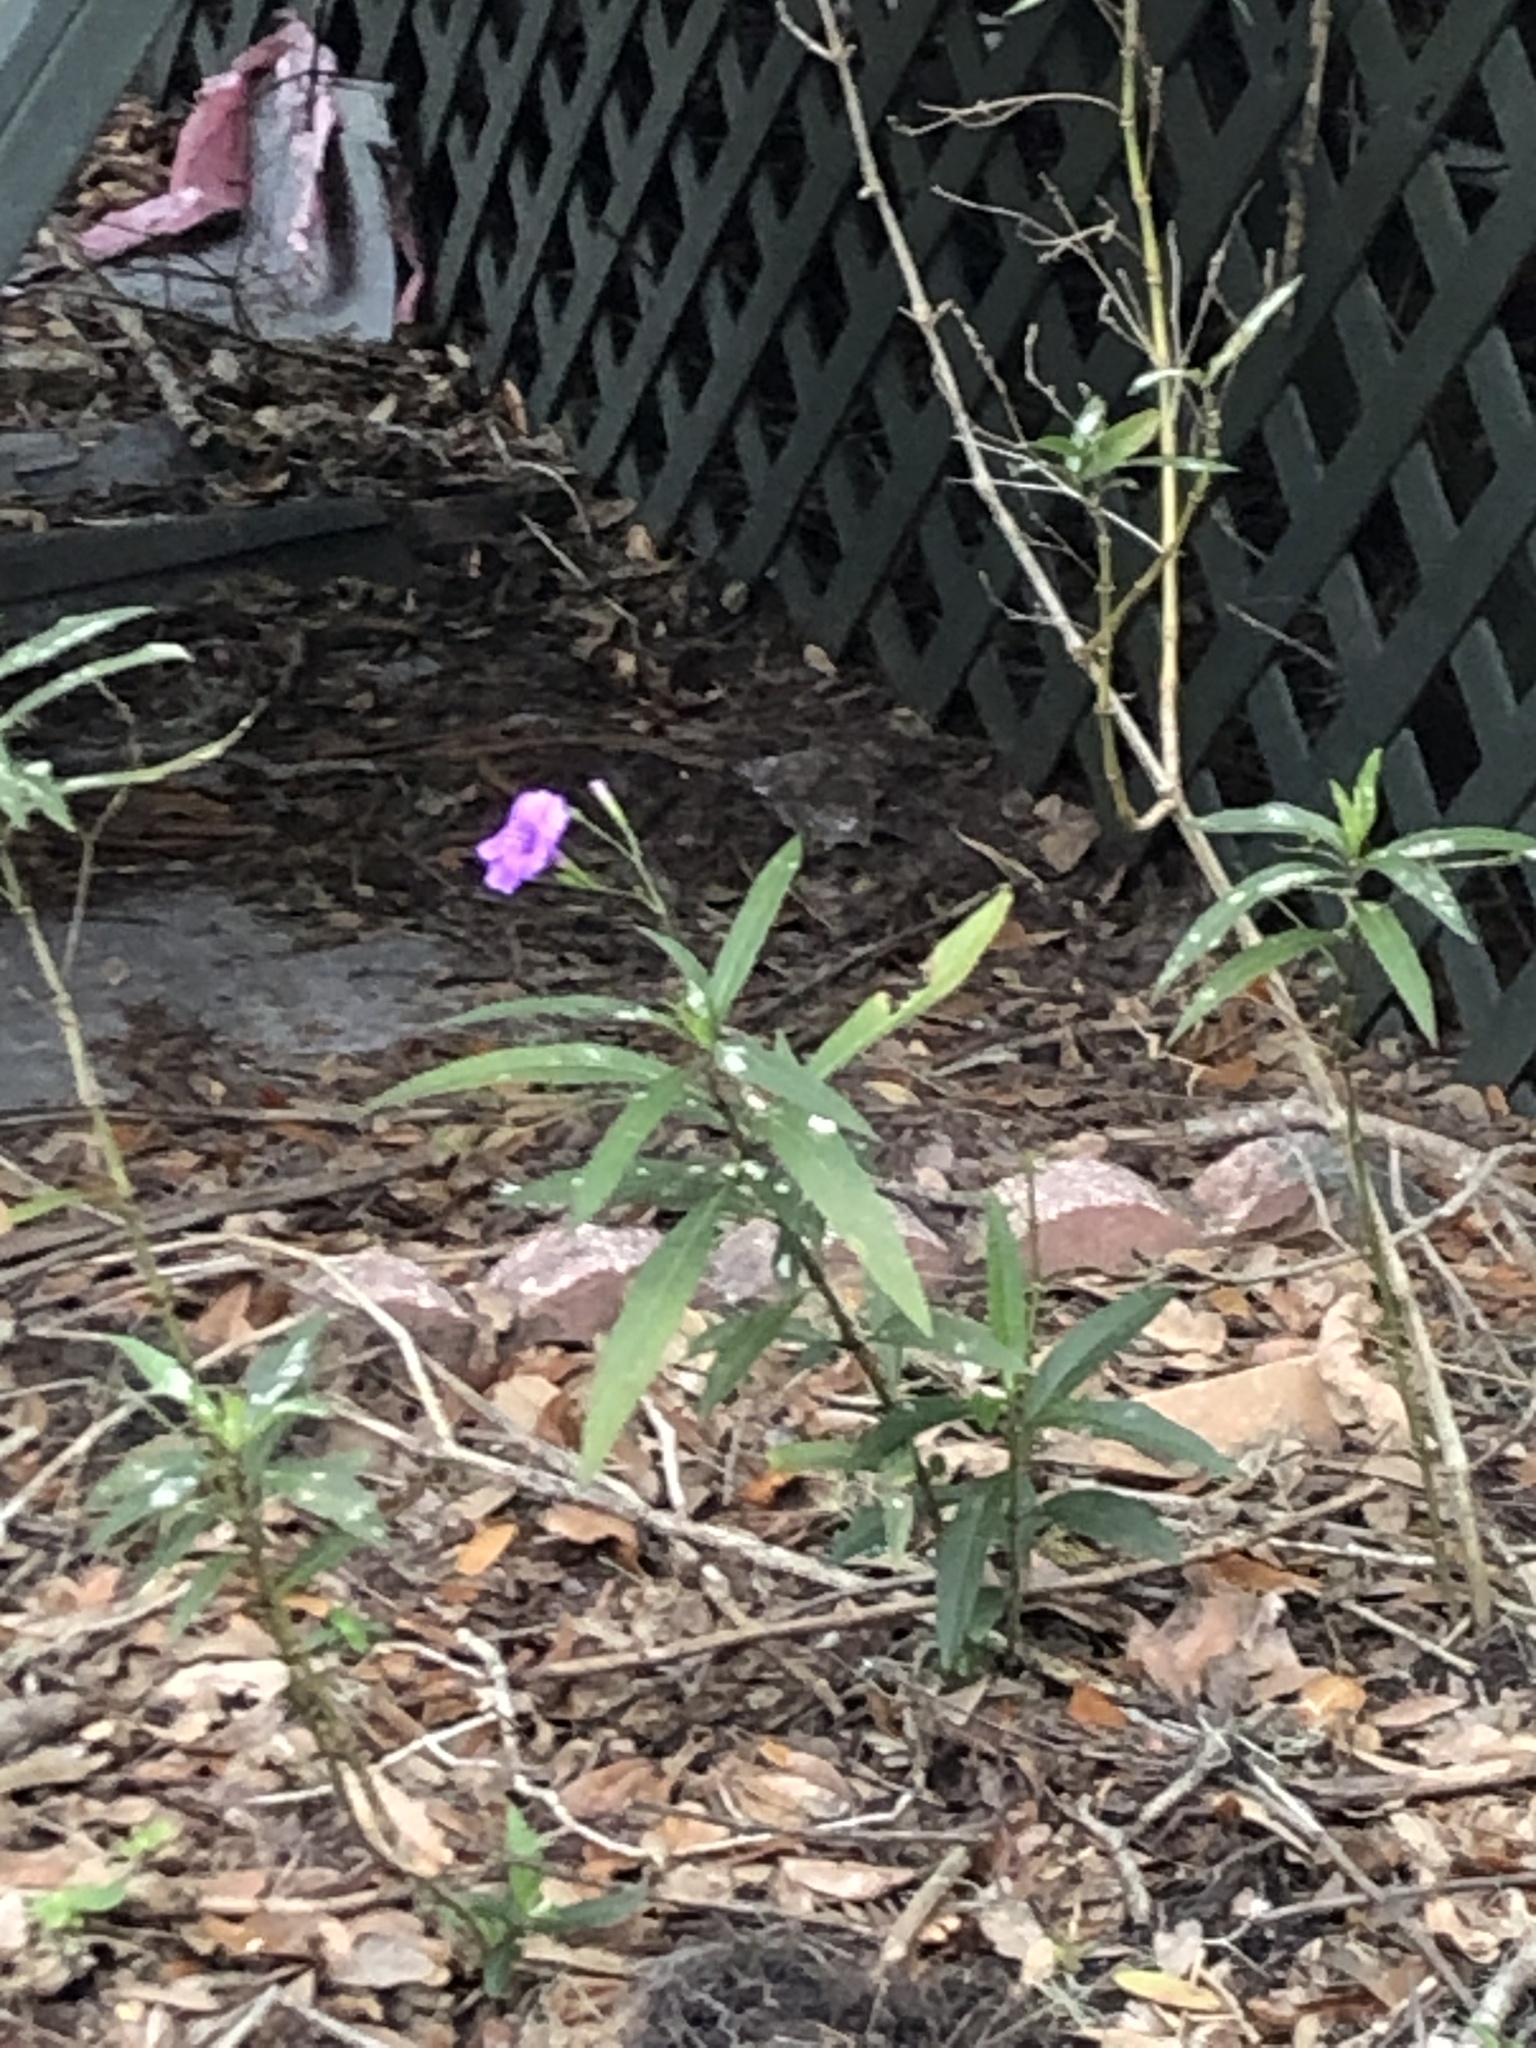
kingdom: Plantae
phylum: Tracheophyta
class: Magnoliopsida
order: Lamiales
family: Acanthaceae
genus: Ruellia
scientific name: Ruellia simplex
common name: Softseed wild petunia
